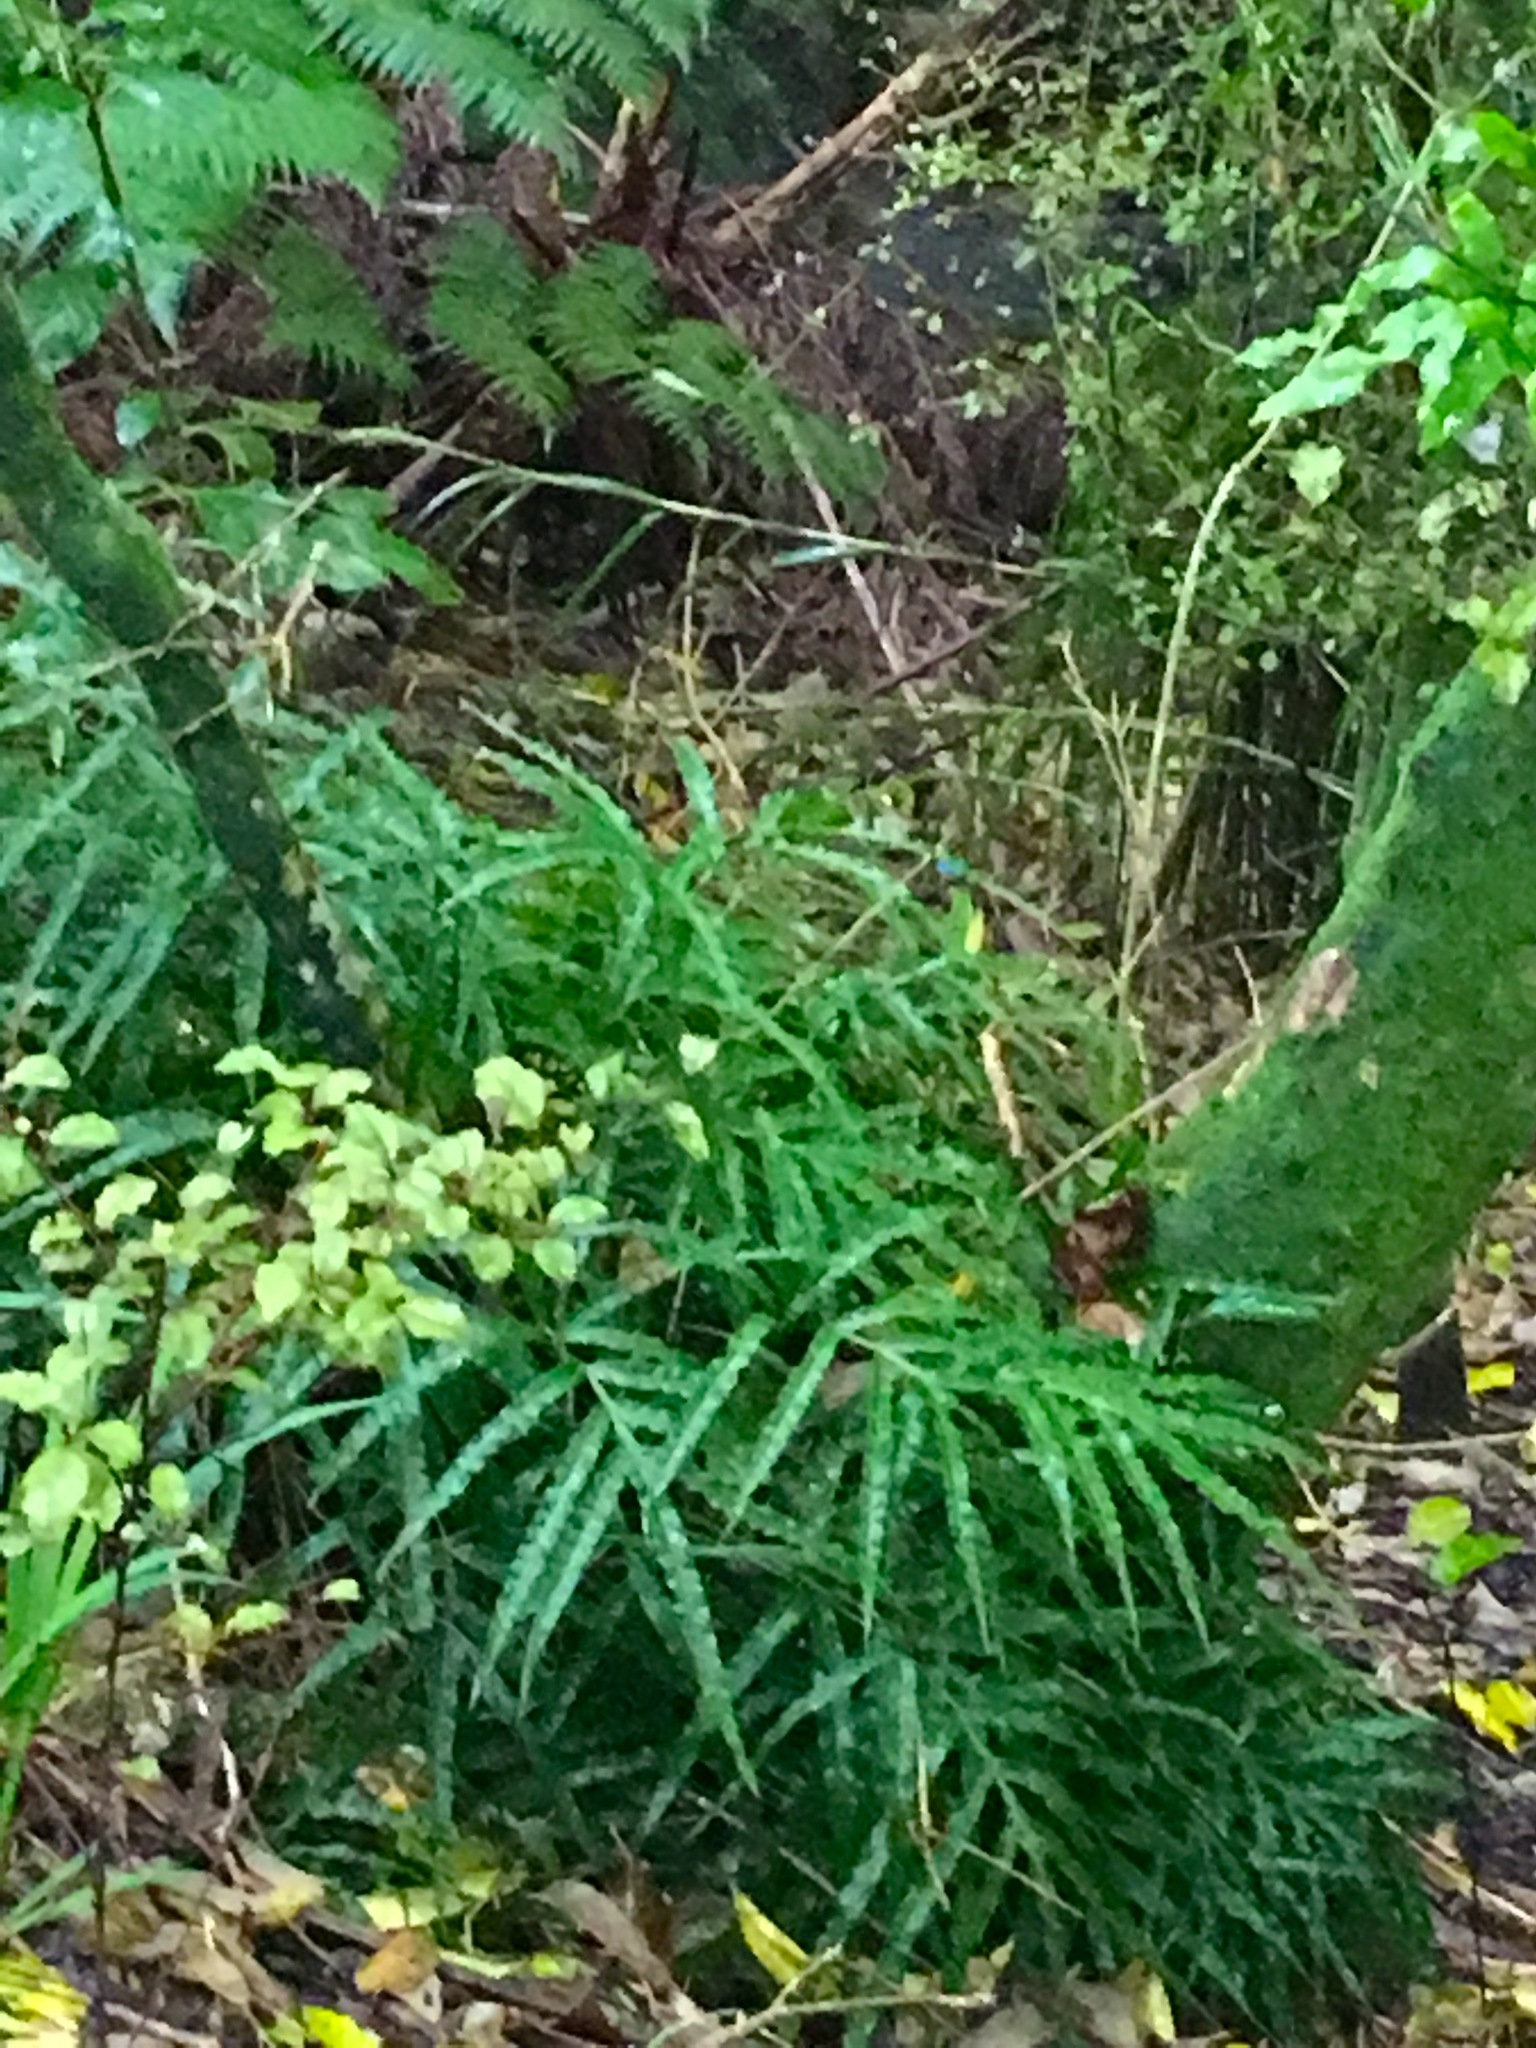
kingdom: Plantae
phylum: Tracheophyta
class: Polypodiopsida
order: Polypodiales
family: Pteridaceae
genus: Pteris
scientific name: Pteris cretica
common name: Ribbon fern
